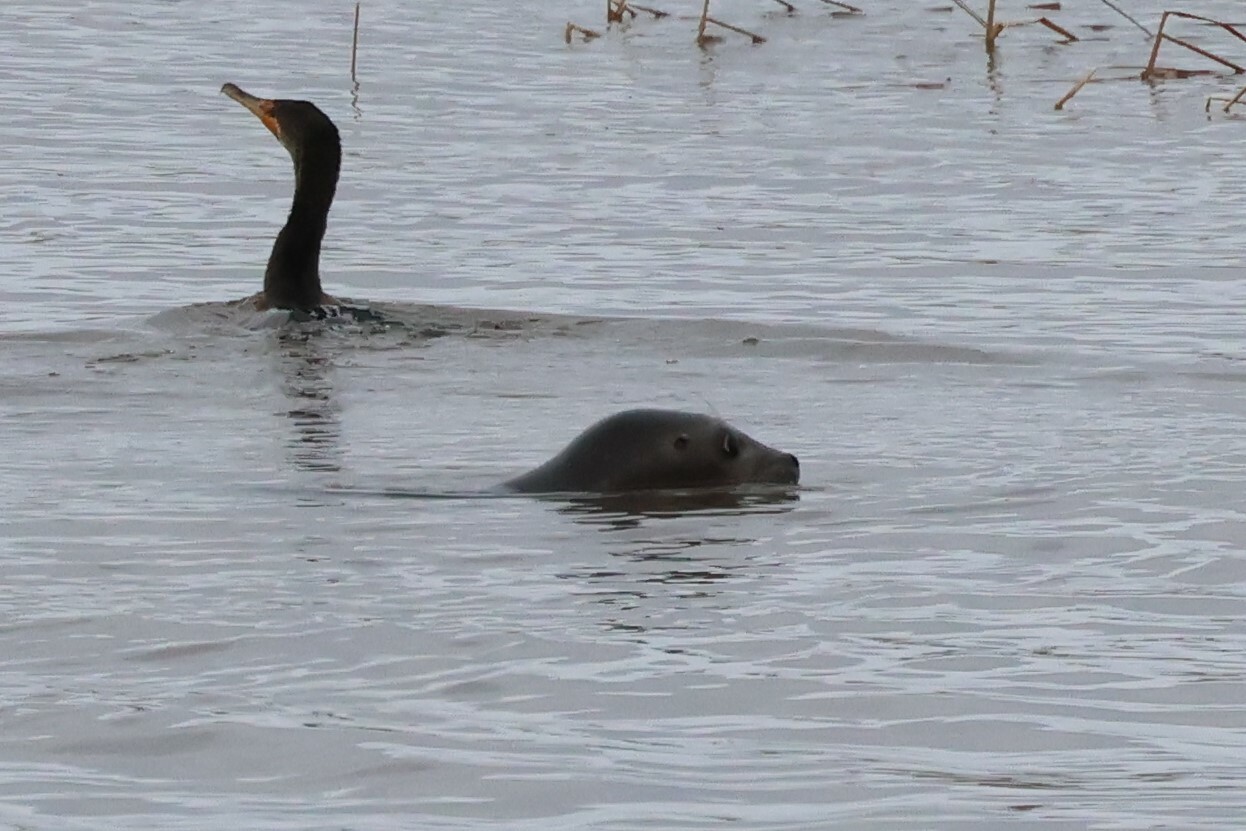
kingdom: Animalia
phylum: Chordata
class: Mammalia
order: Carnivora
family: Phocidae
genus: Phoca
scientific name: Phoca vitulina
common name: Harbor seal
